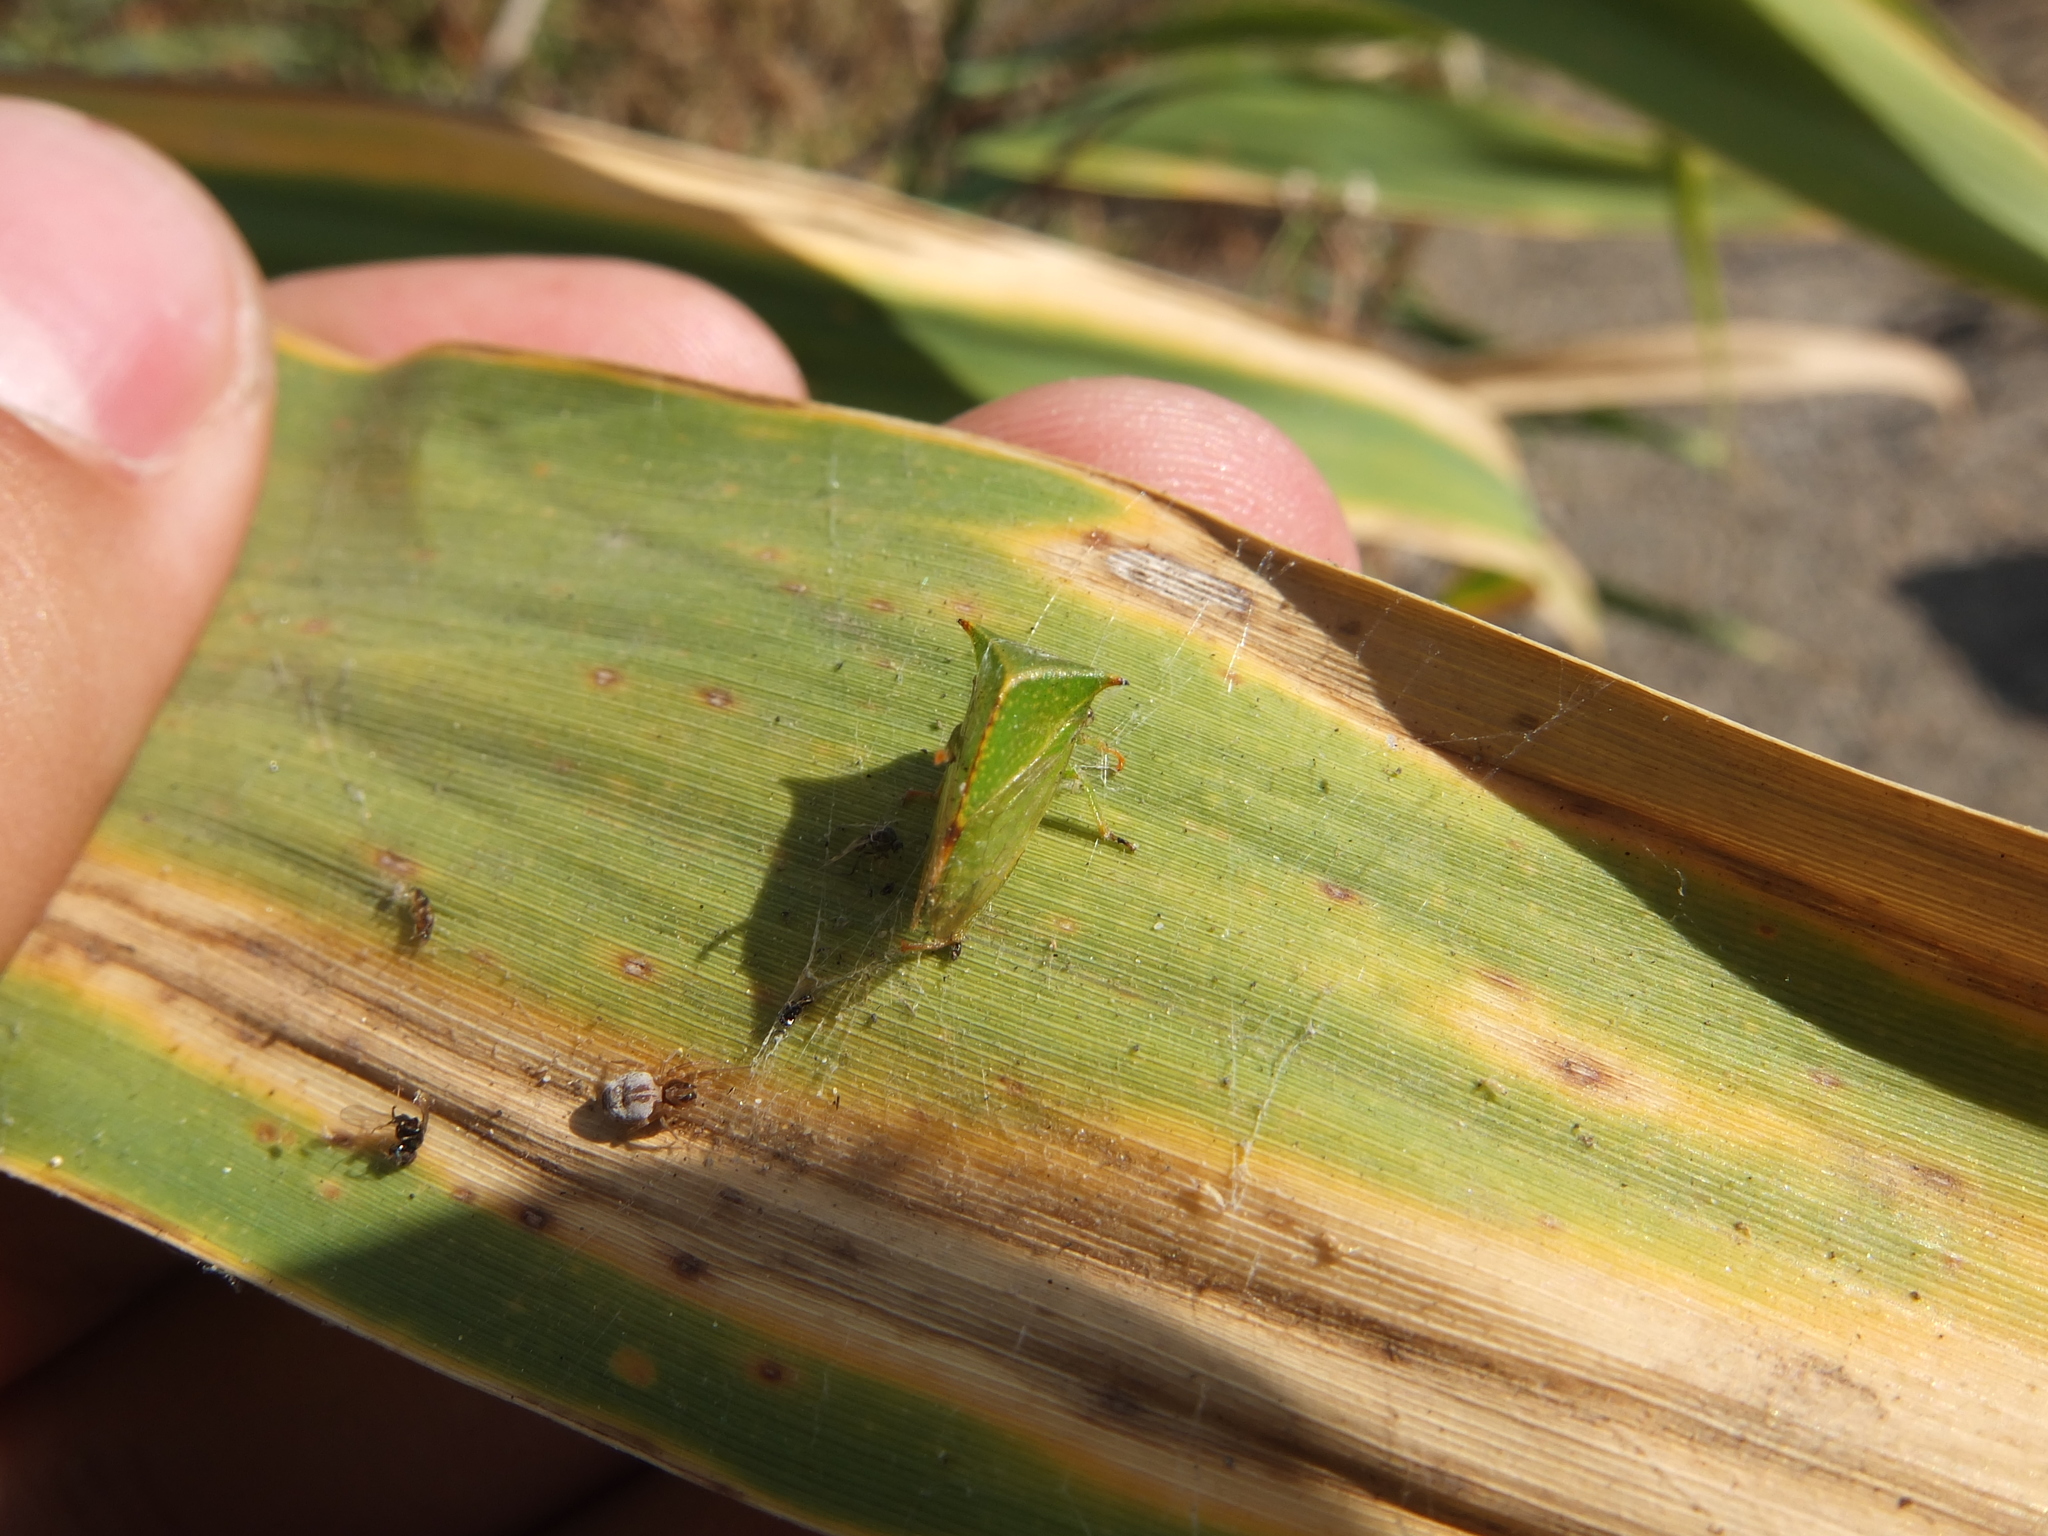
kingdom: Animalia
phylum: Arthropoda
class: Insecta
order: Hemiptera
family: Membracidae
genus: Stictocephala
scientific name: Stictocephala bisonia
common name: American buffalo treehopper
